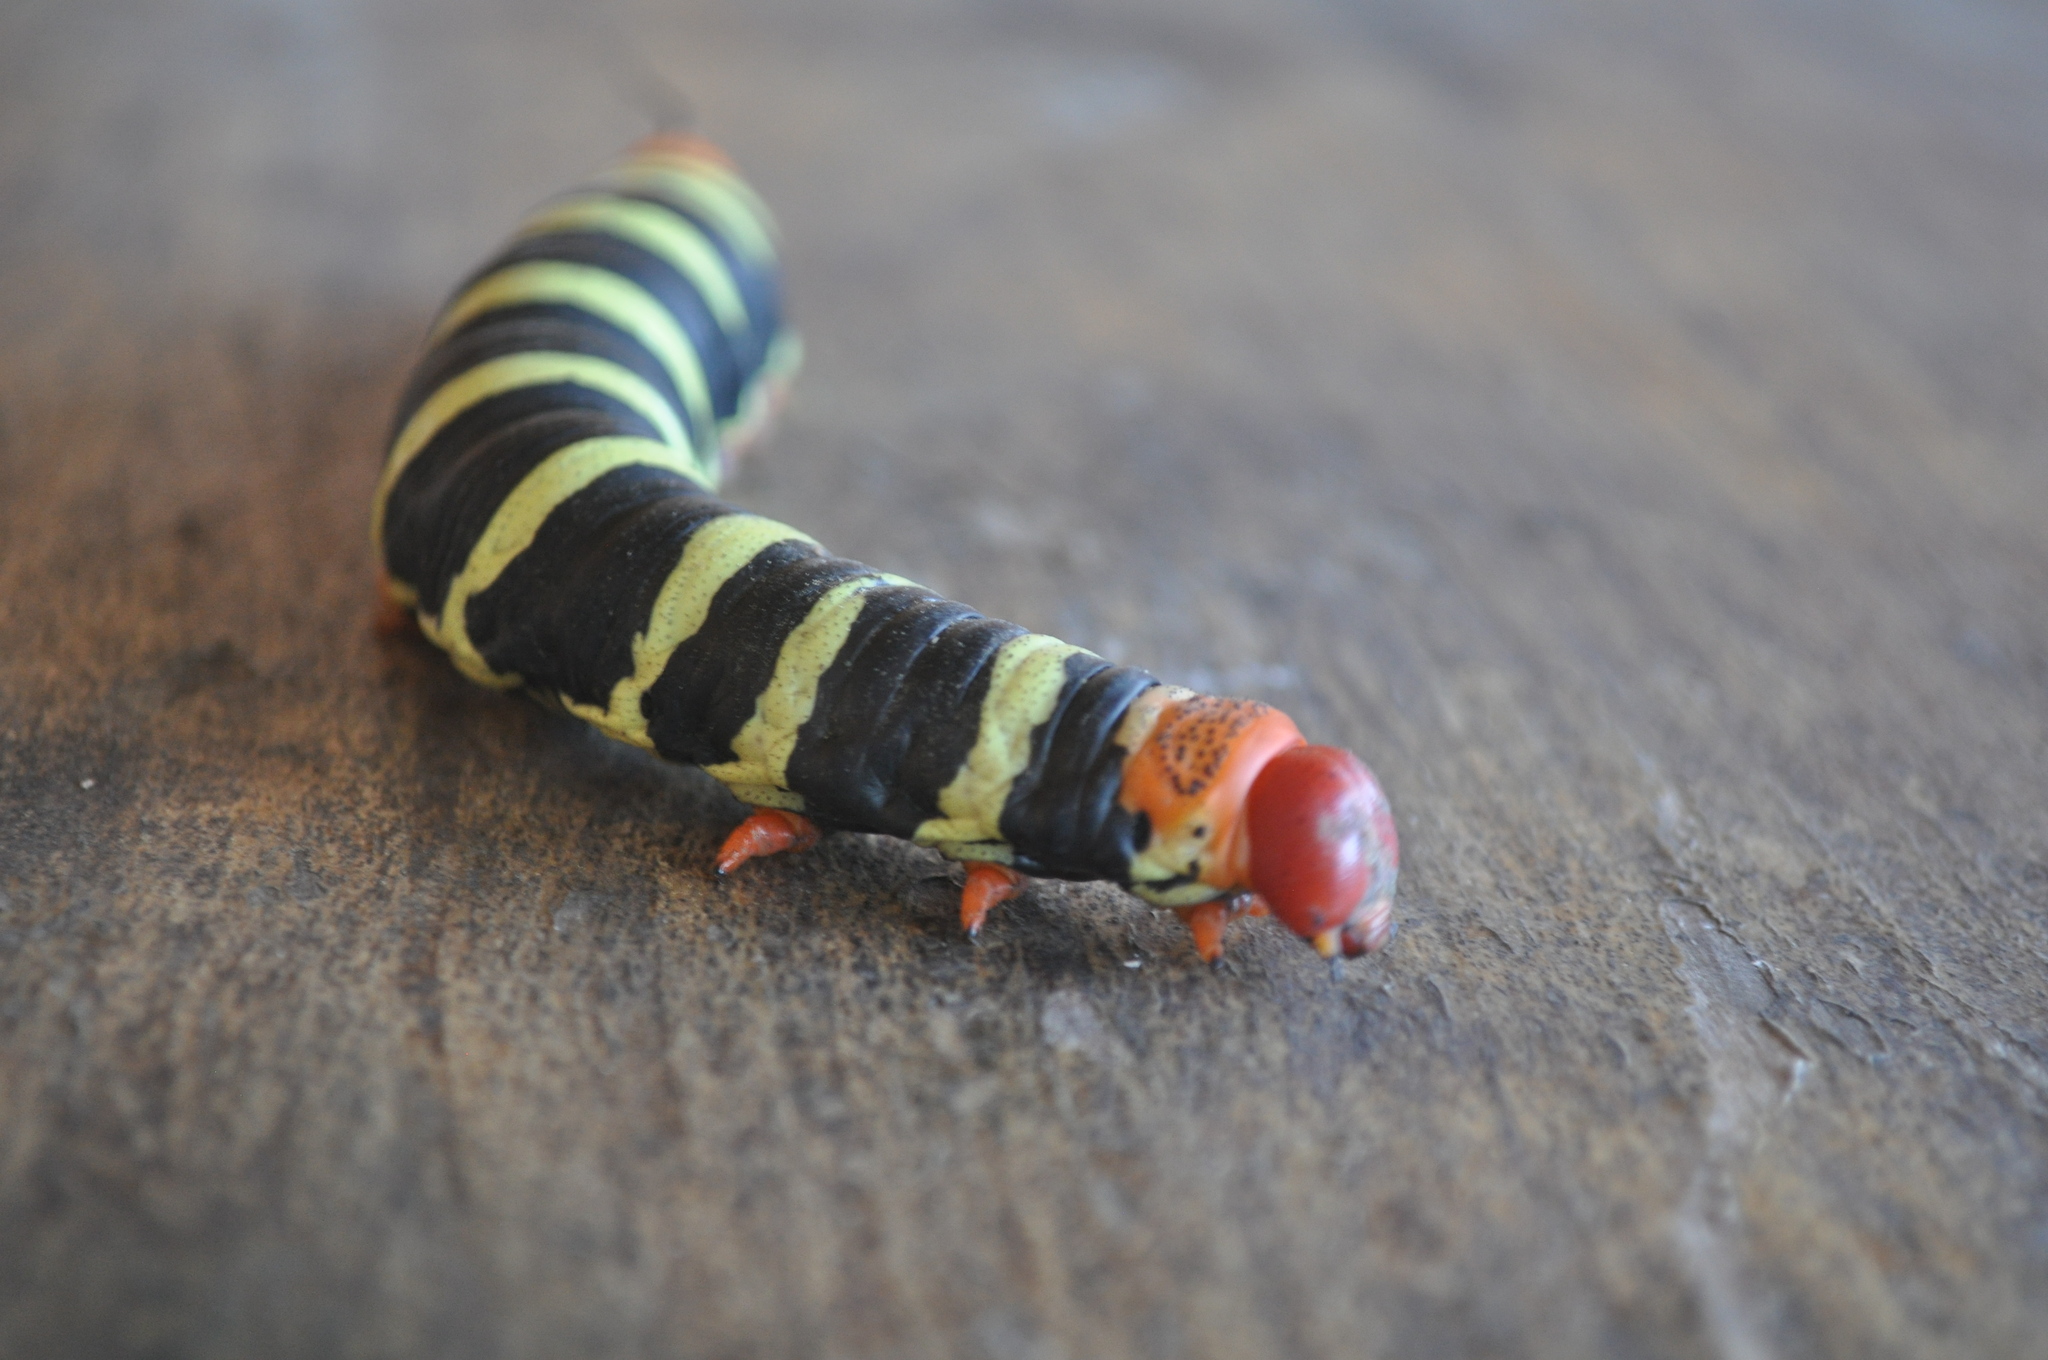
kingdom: Animalia
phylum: Arthropoda
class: Insecta
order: Lepidoptera
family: Sphingidae
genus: Pseudosphinx
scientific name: Pseudosphinx tetrio
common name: Tetrio sphinx
